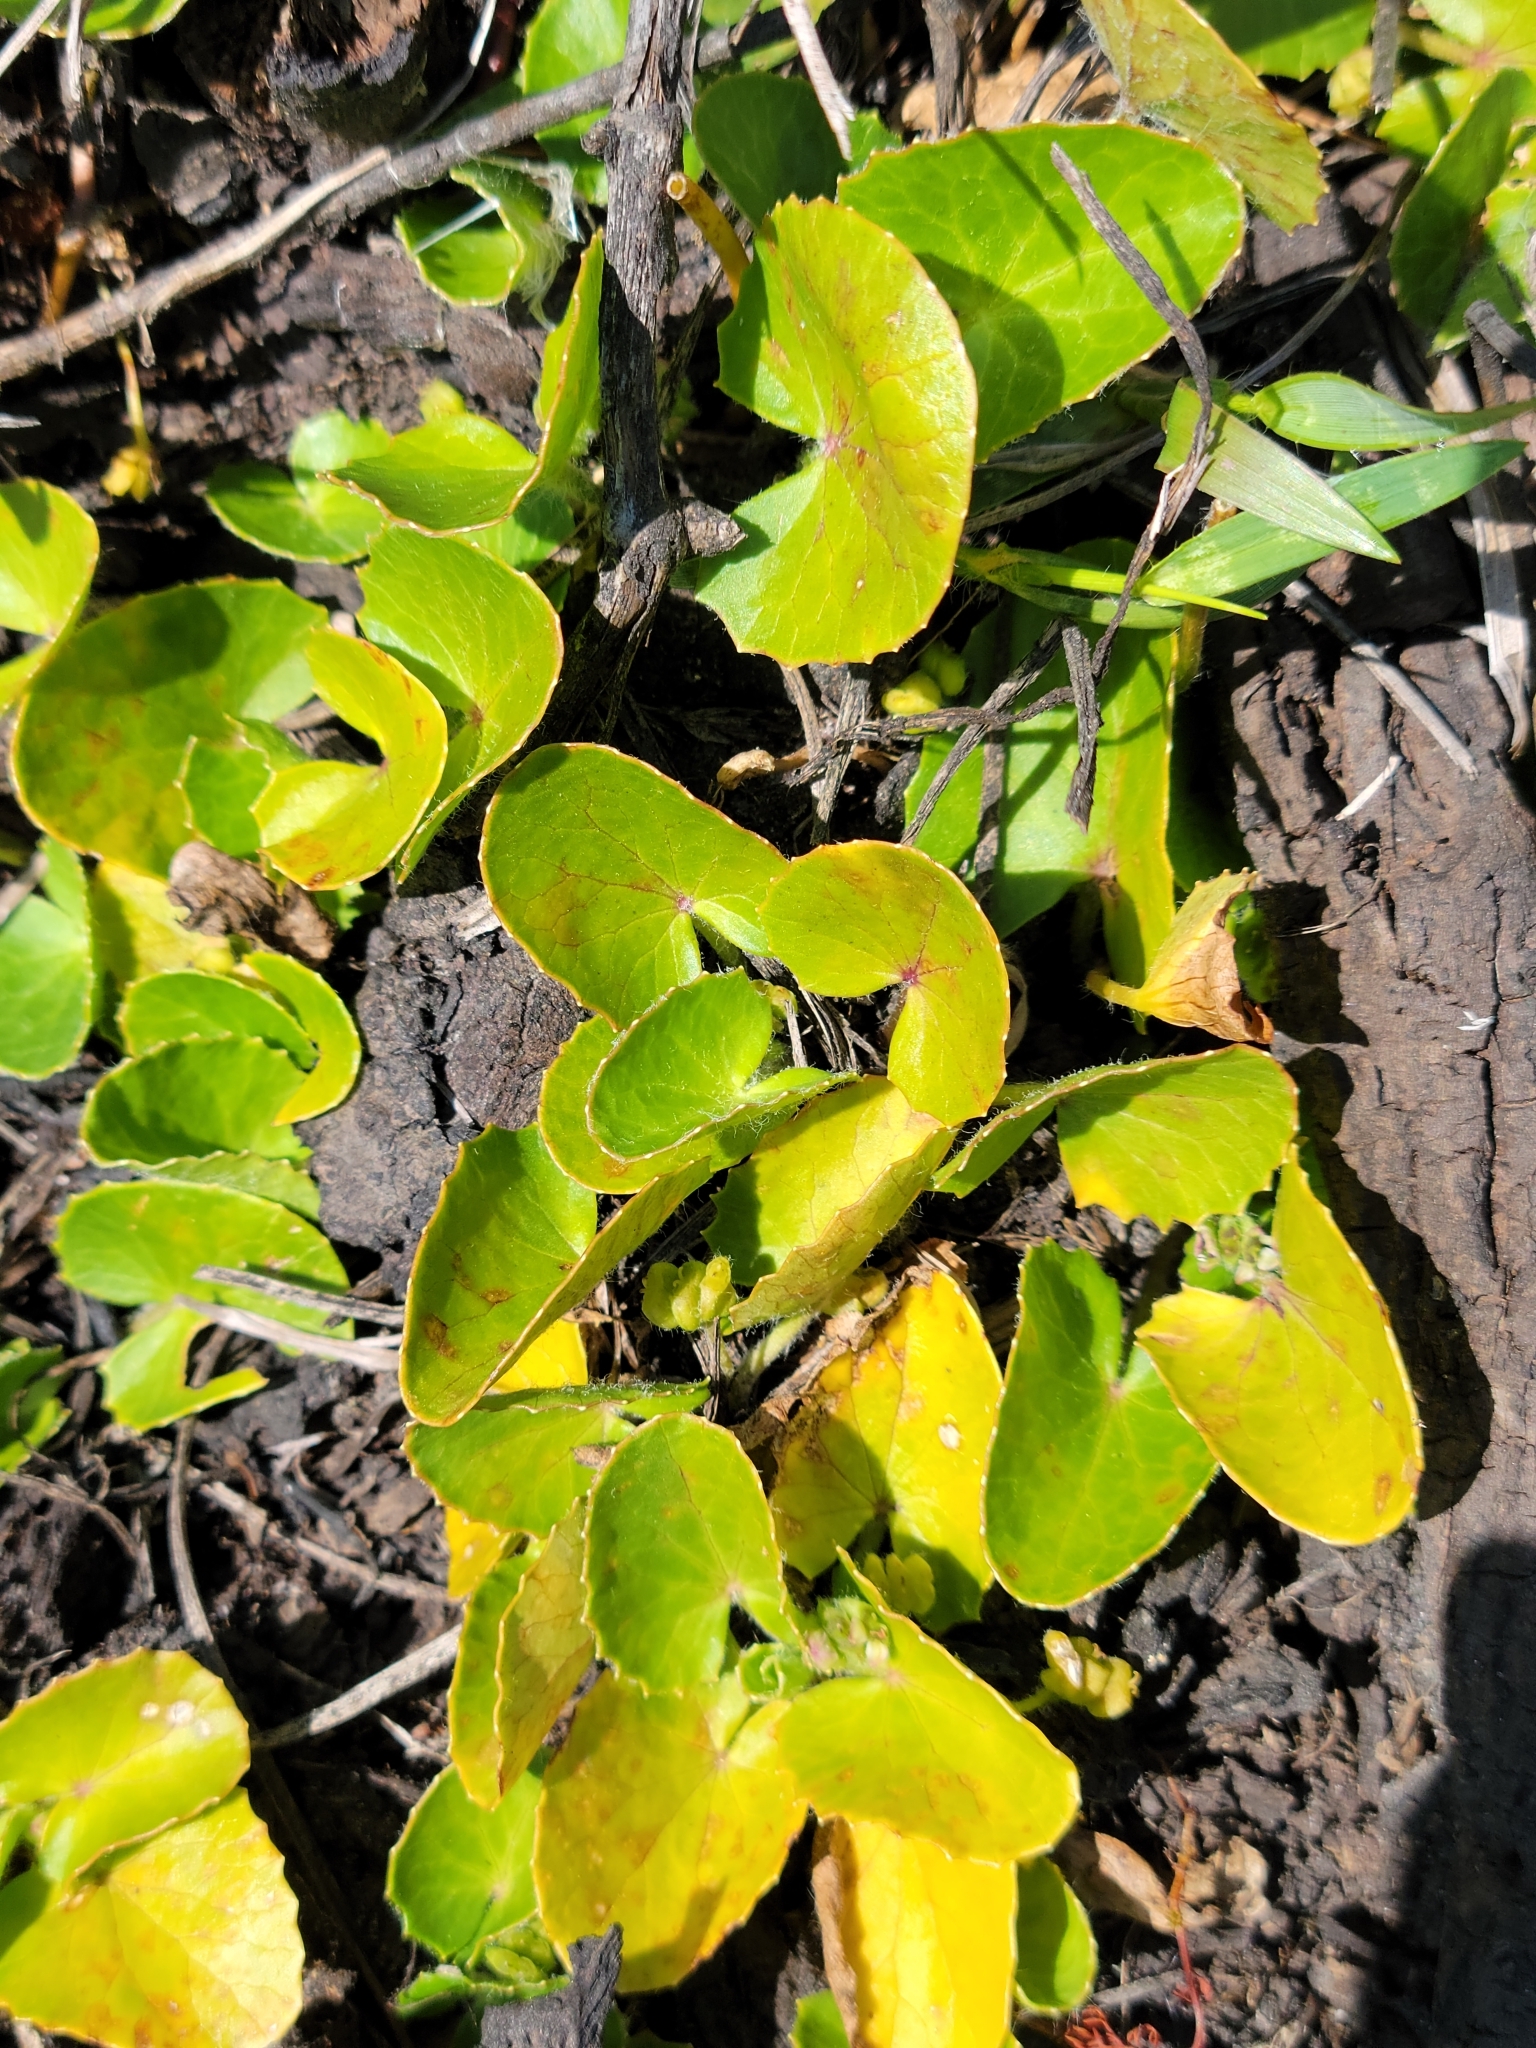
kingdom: Plantae
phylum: Tracheophyta
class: Magnoliopsida
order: Apiales
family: Apiaceae
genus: Centella
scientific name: Centella erecta
